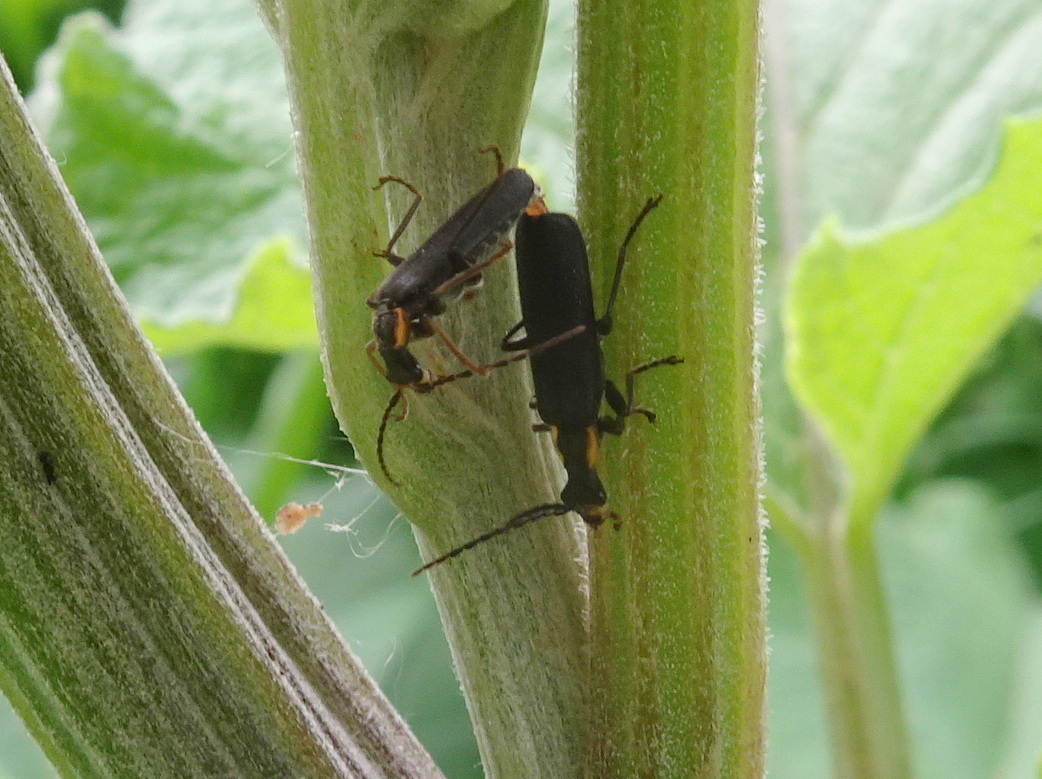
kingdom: Animalia
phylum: Arthropoda
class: Insecta
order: Coleoptera
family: Cantharidae
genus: Podabrus
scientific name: Podabrus rugosulus
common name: Wrinkled soldier beetle
